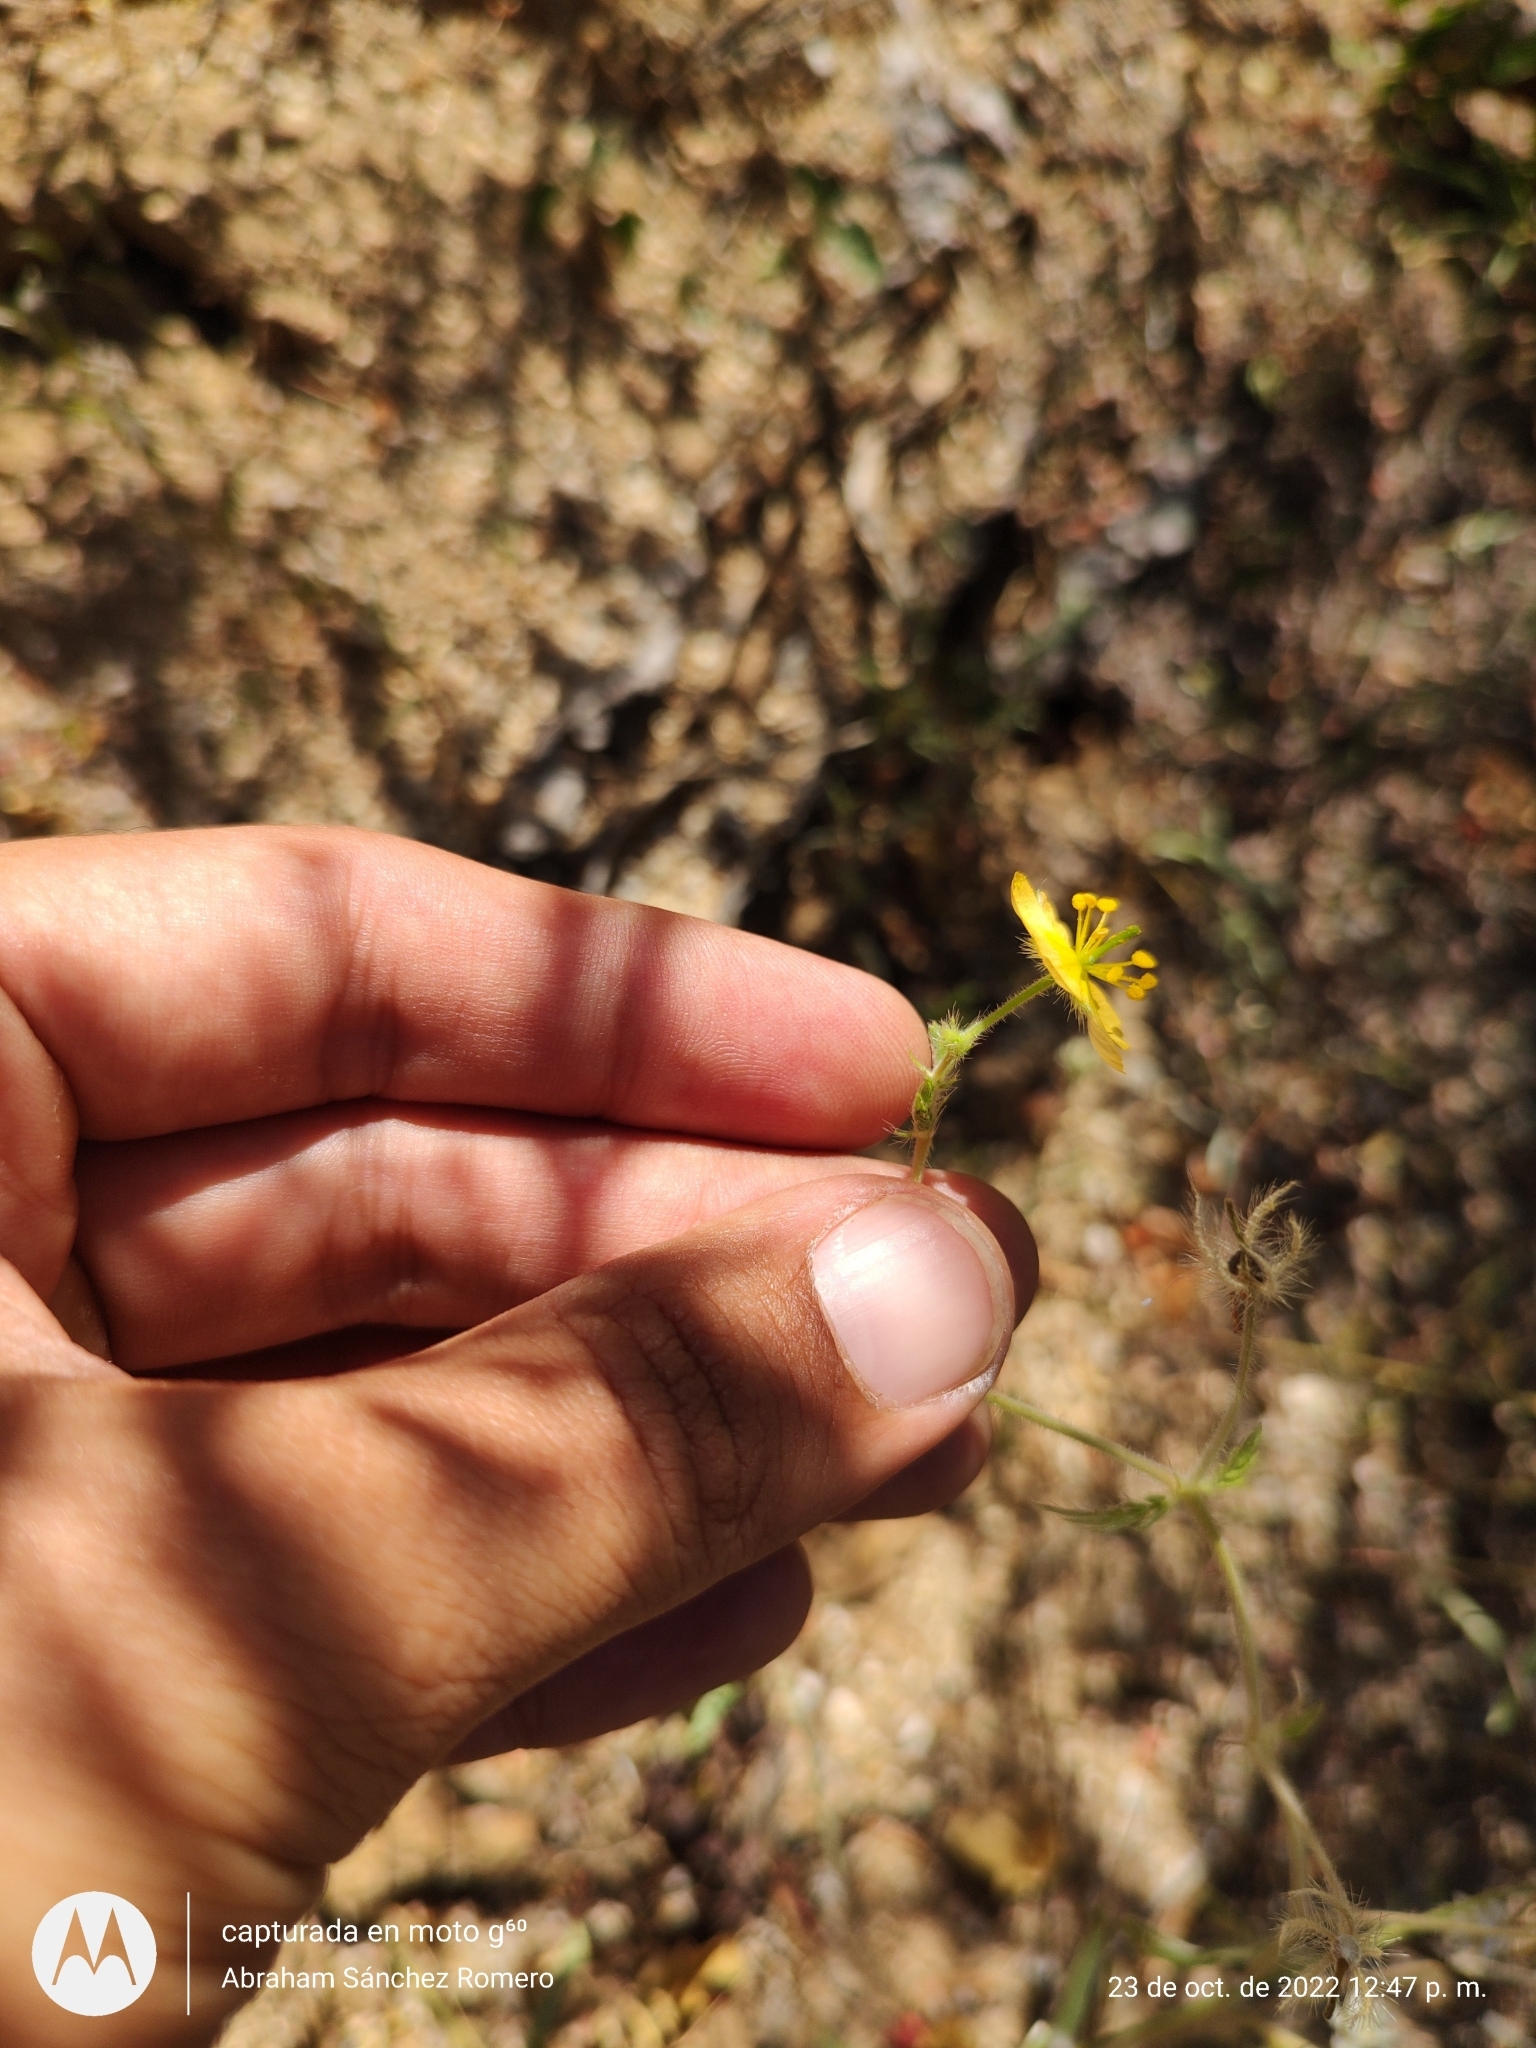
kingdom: Plantae
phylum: Tracheophyta
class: Magnoliopsida
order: Zygophyllales
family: Zygophyllaceae
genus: Kallstroemia
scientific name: Kallstroemia peninsularis
